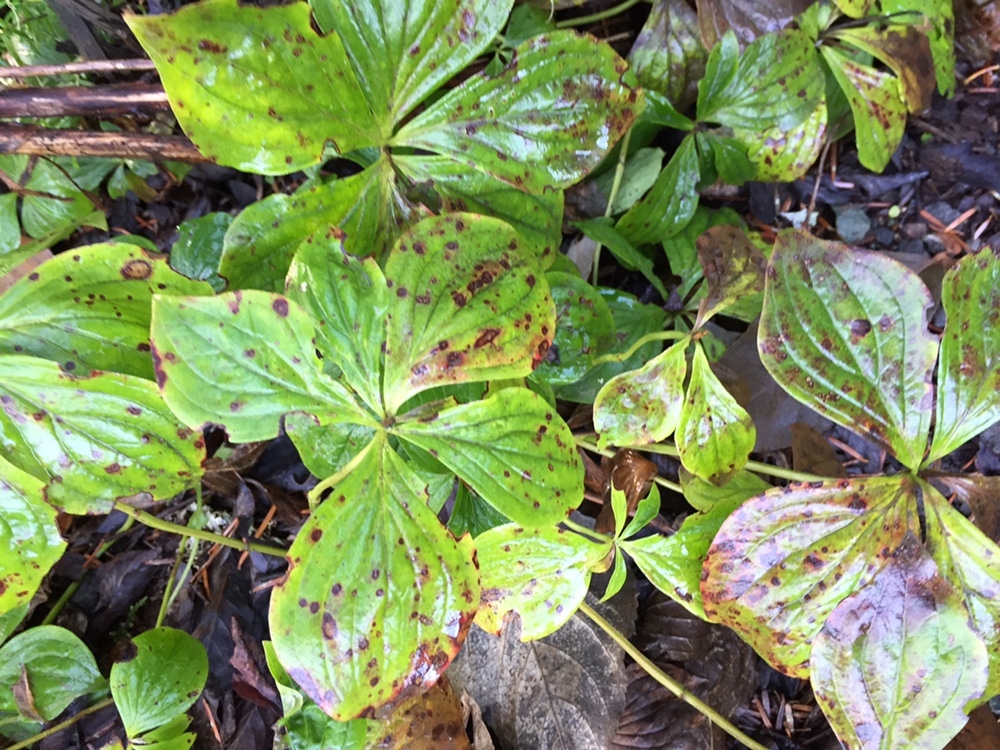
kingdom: Plantae
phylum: Tracheophyta
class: Magnoliopsida
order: Cornales
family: Cornaceae
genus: Cornus
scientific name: Cornus unalaschkensis
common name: Alaska bunchberry
